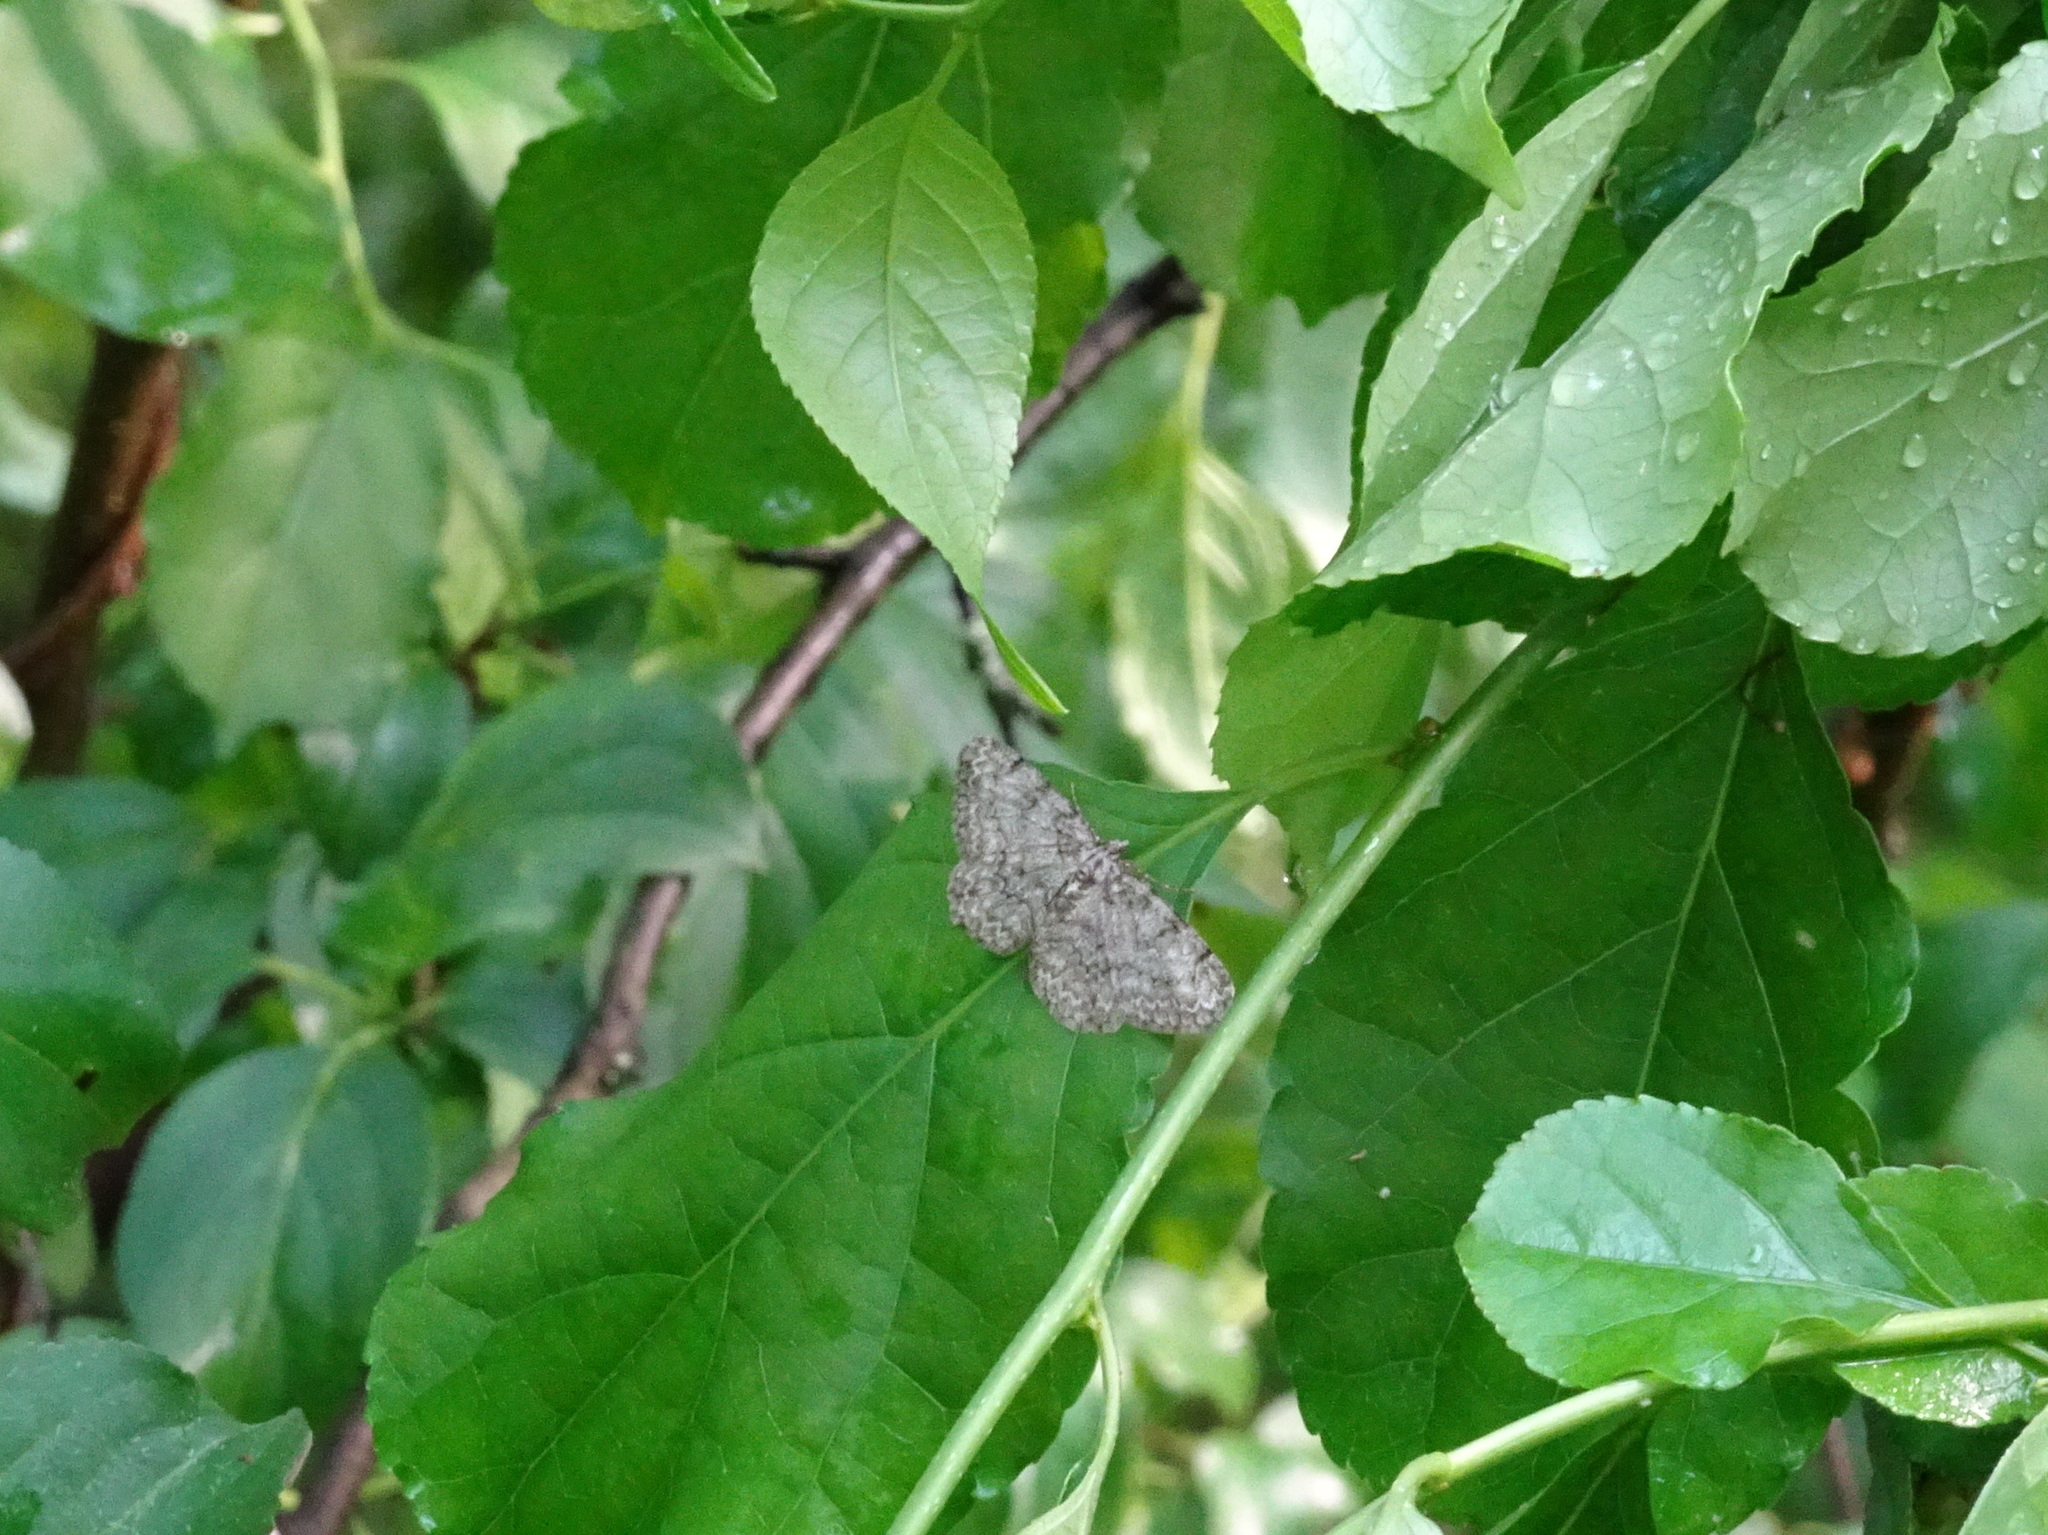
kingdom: Animalia
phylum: Arthropoda
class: Insecta
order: Lepidoptera
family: Geometridae
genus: Protoboarmia
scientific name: Protoboarmia porcelaria
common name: Porcelain gray
